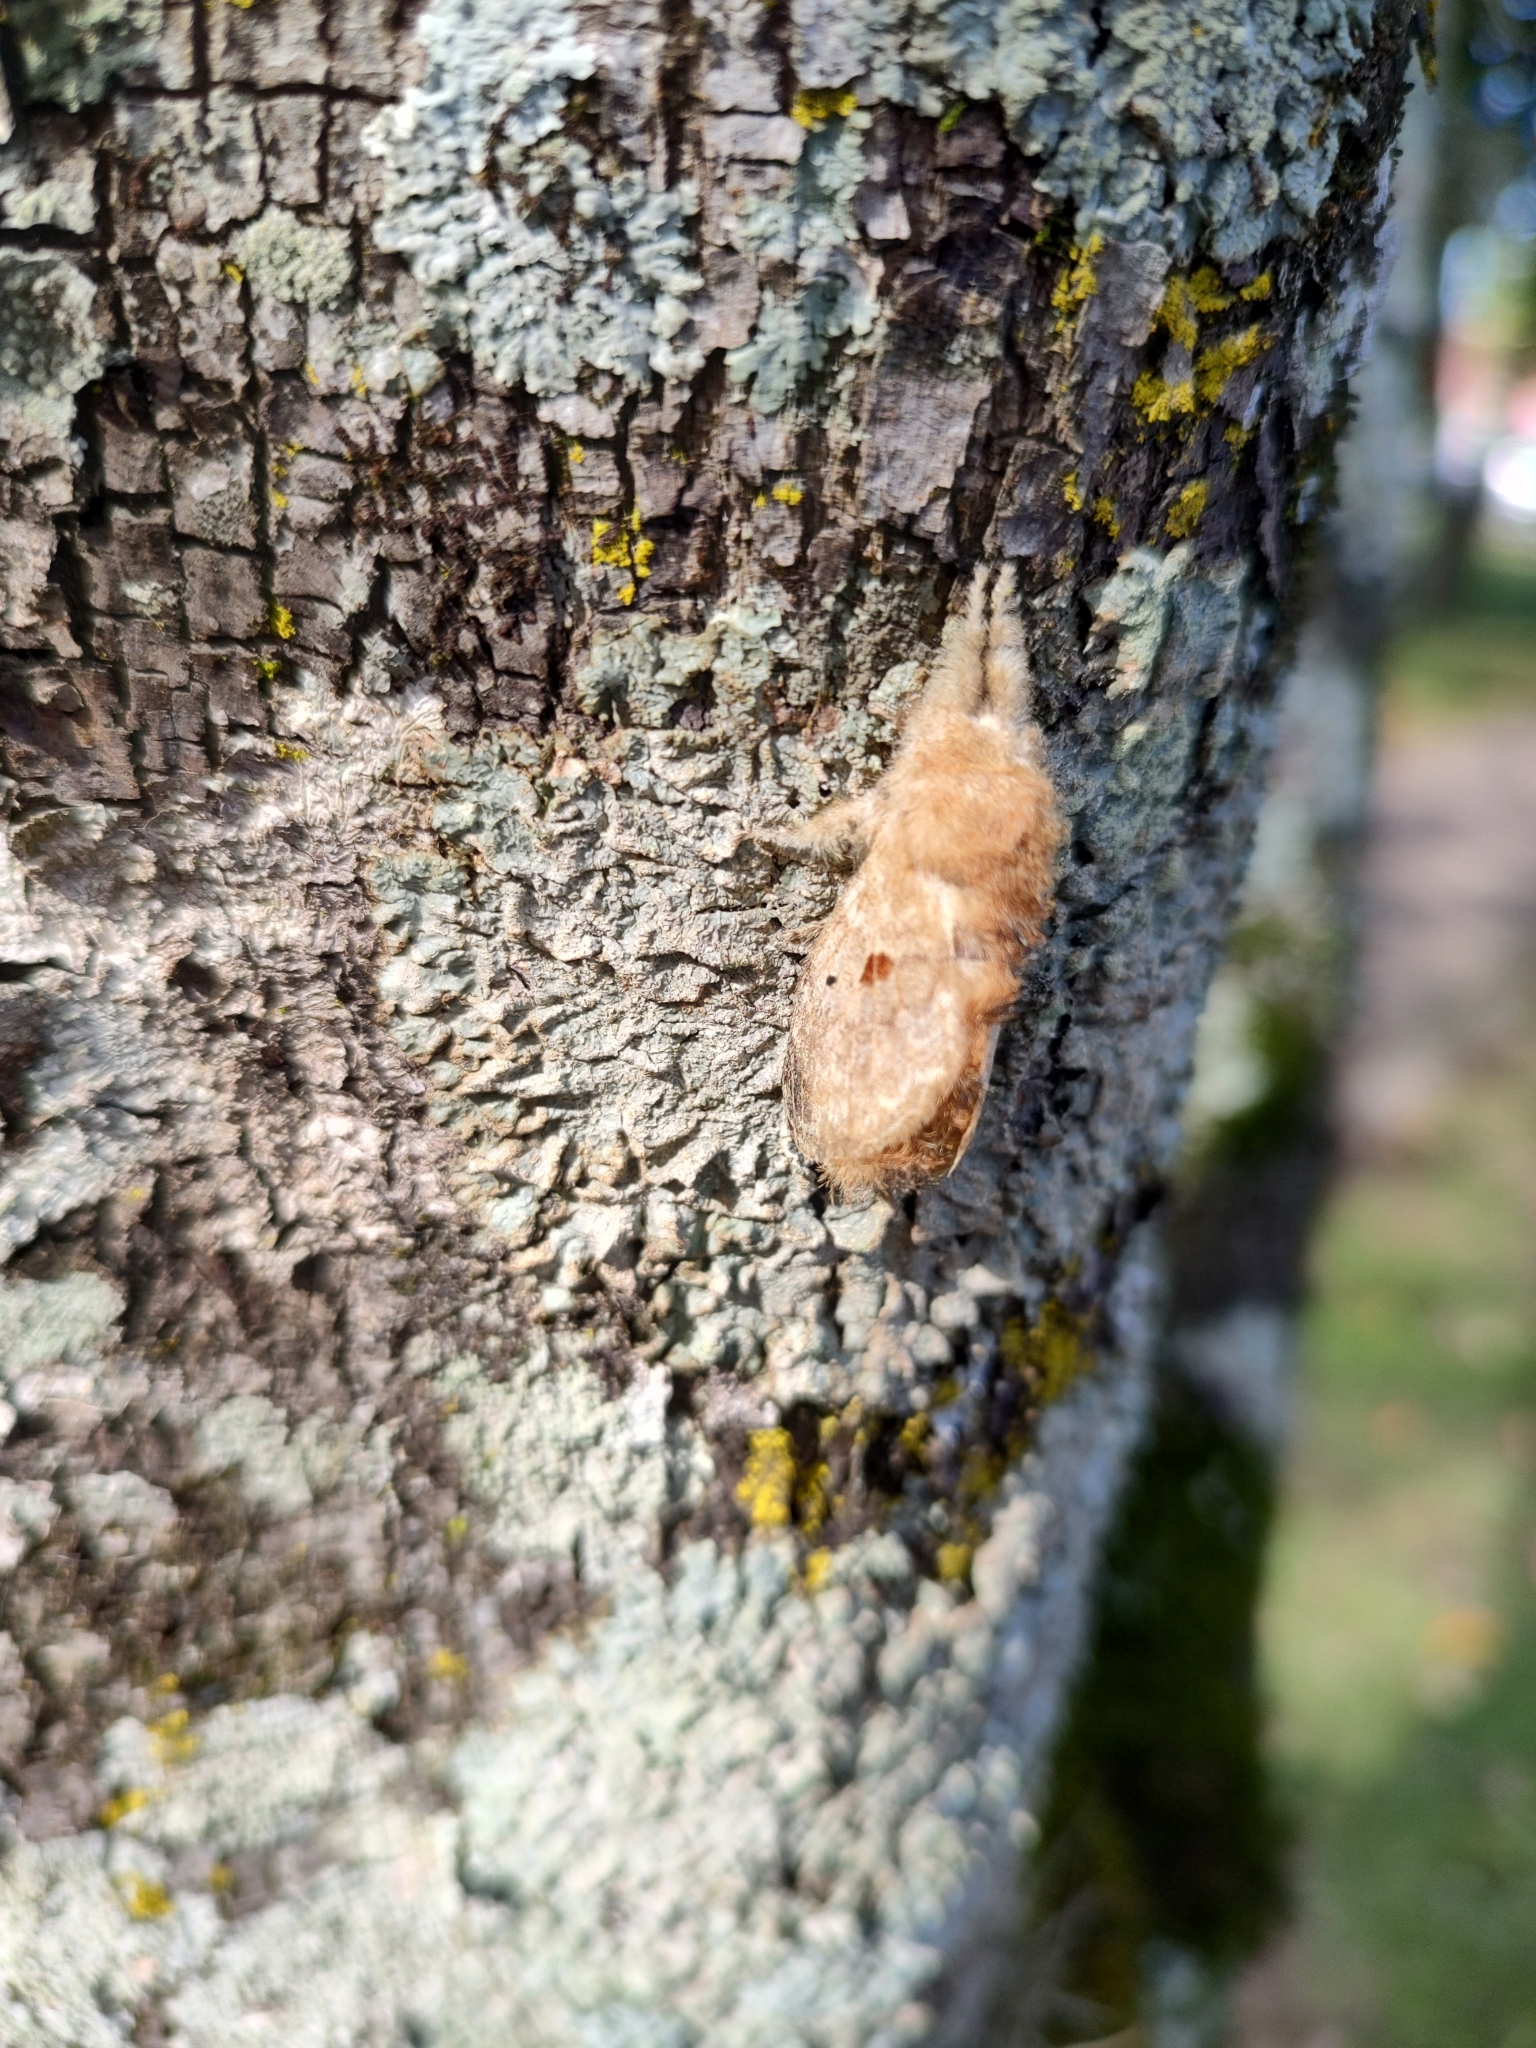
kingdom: Animalia
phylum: Arthropoda
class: Insecta
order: Lepidoptera
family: Lasiocampidae
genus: Tolype
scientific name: Tolype viuda
